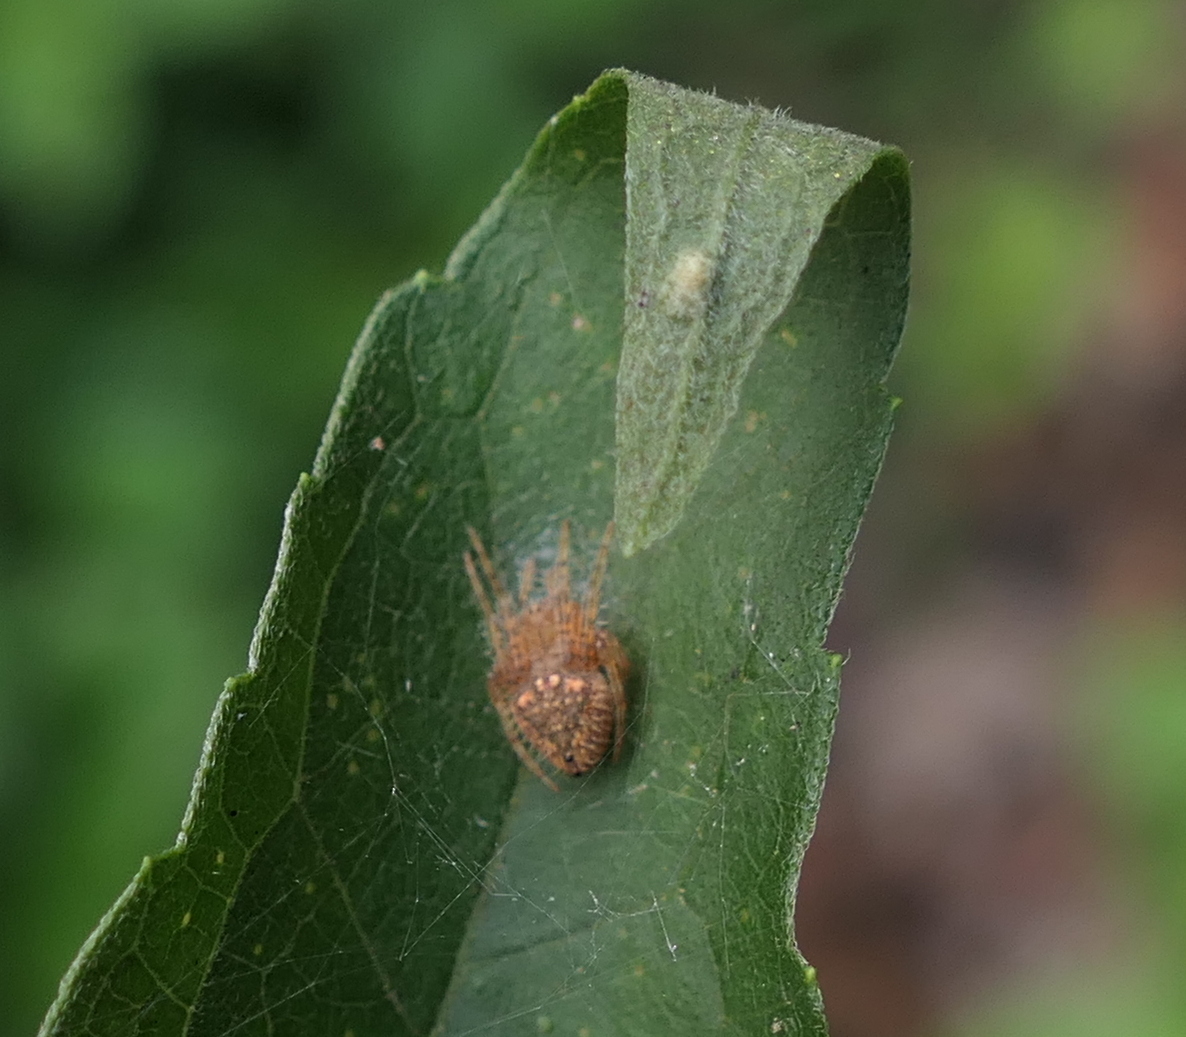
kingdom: Animalia
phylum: Arthropoda
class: Arachnida
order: Araneae
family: Araneidae
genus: Eriophora
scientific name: Eriophora edax
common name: Orb weavers
